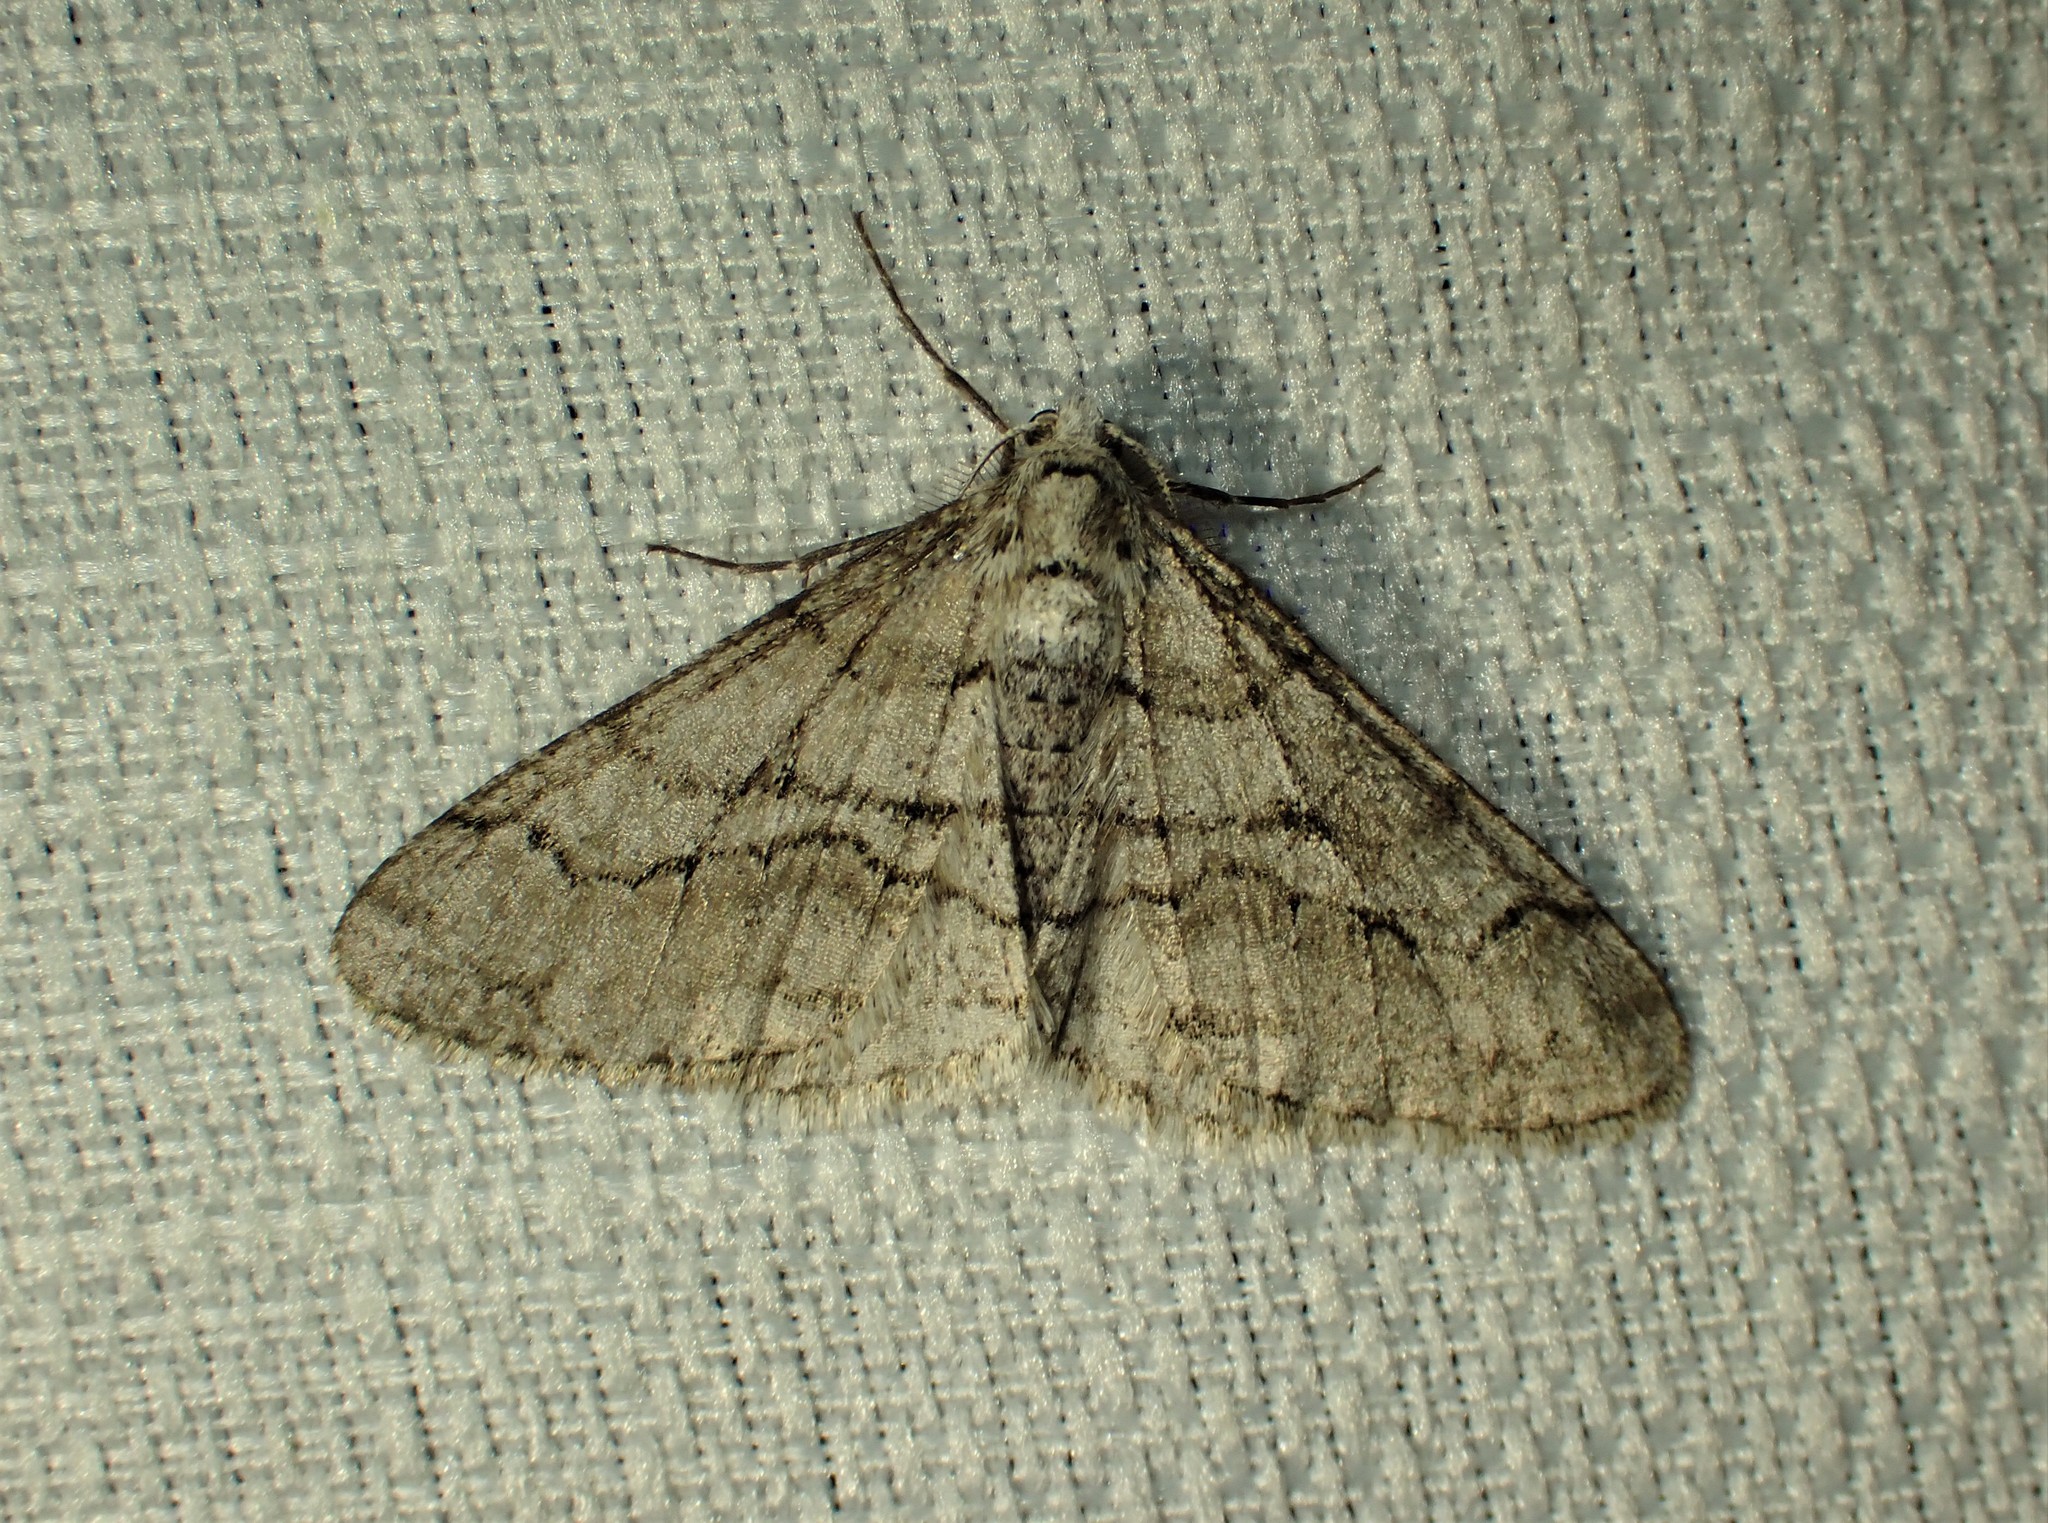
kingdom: Animalia
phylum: Arthropoda
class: Insecta
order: Lepidoptera
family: Geometridae
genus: Phigalia
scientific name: Phigalia titea
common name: Spiny looper
